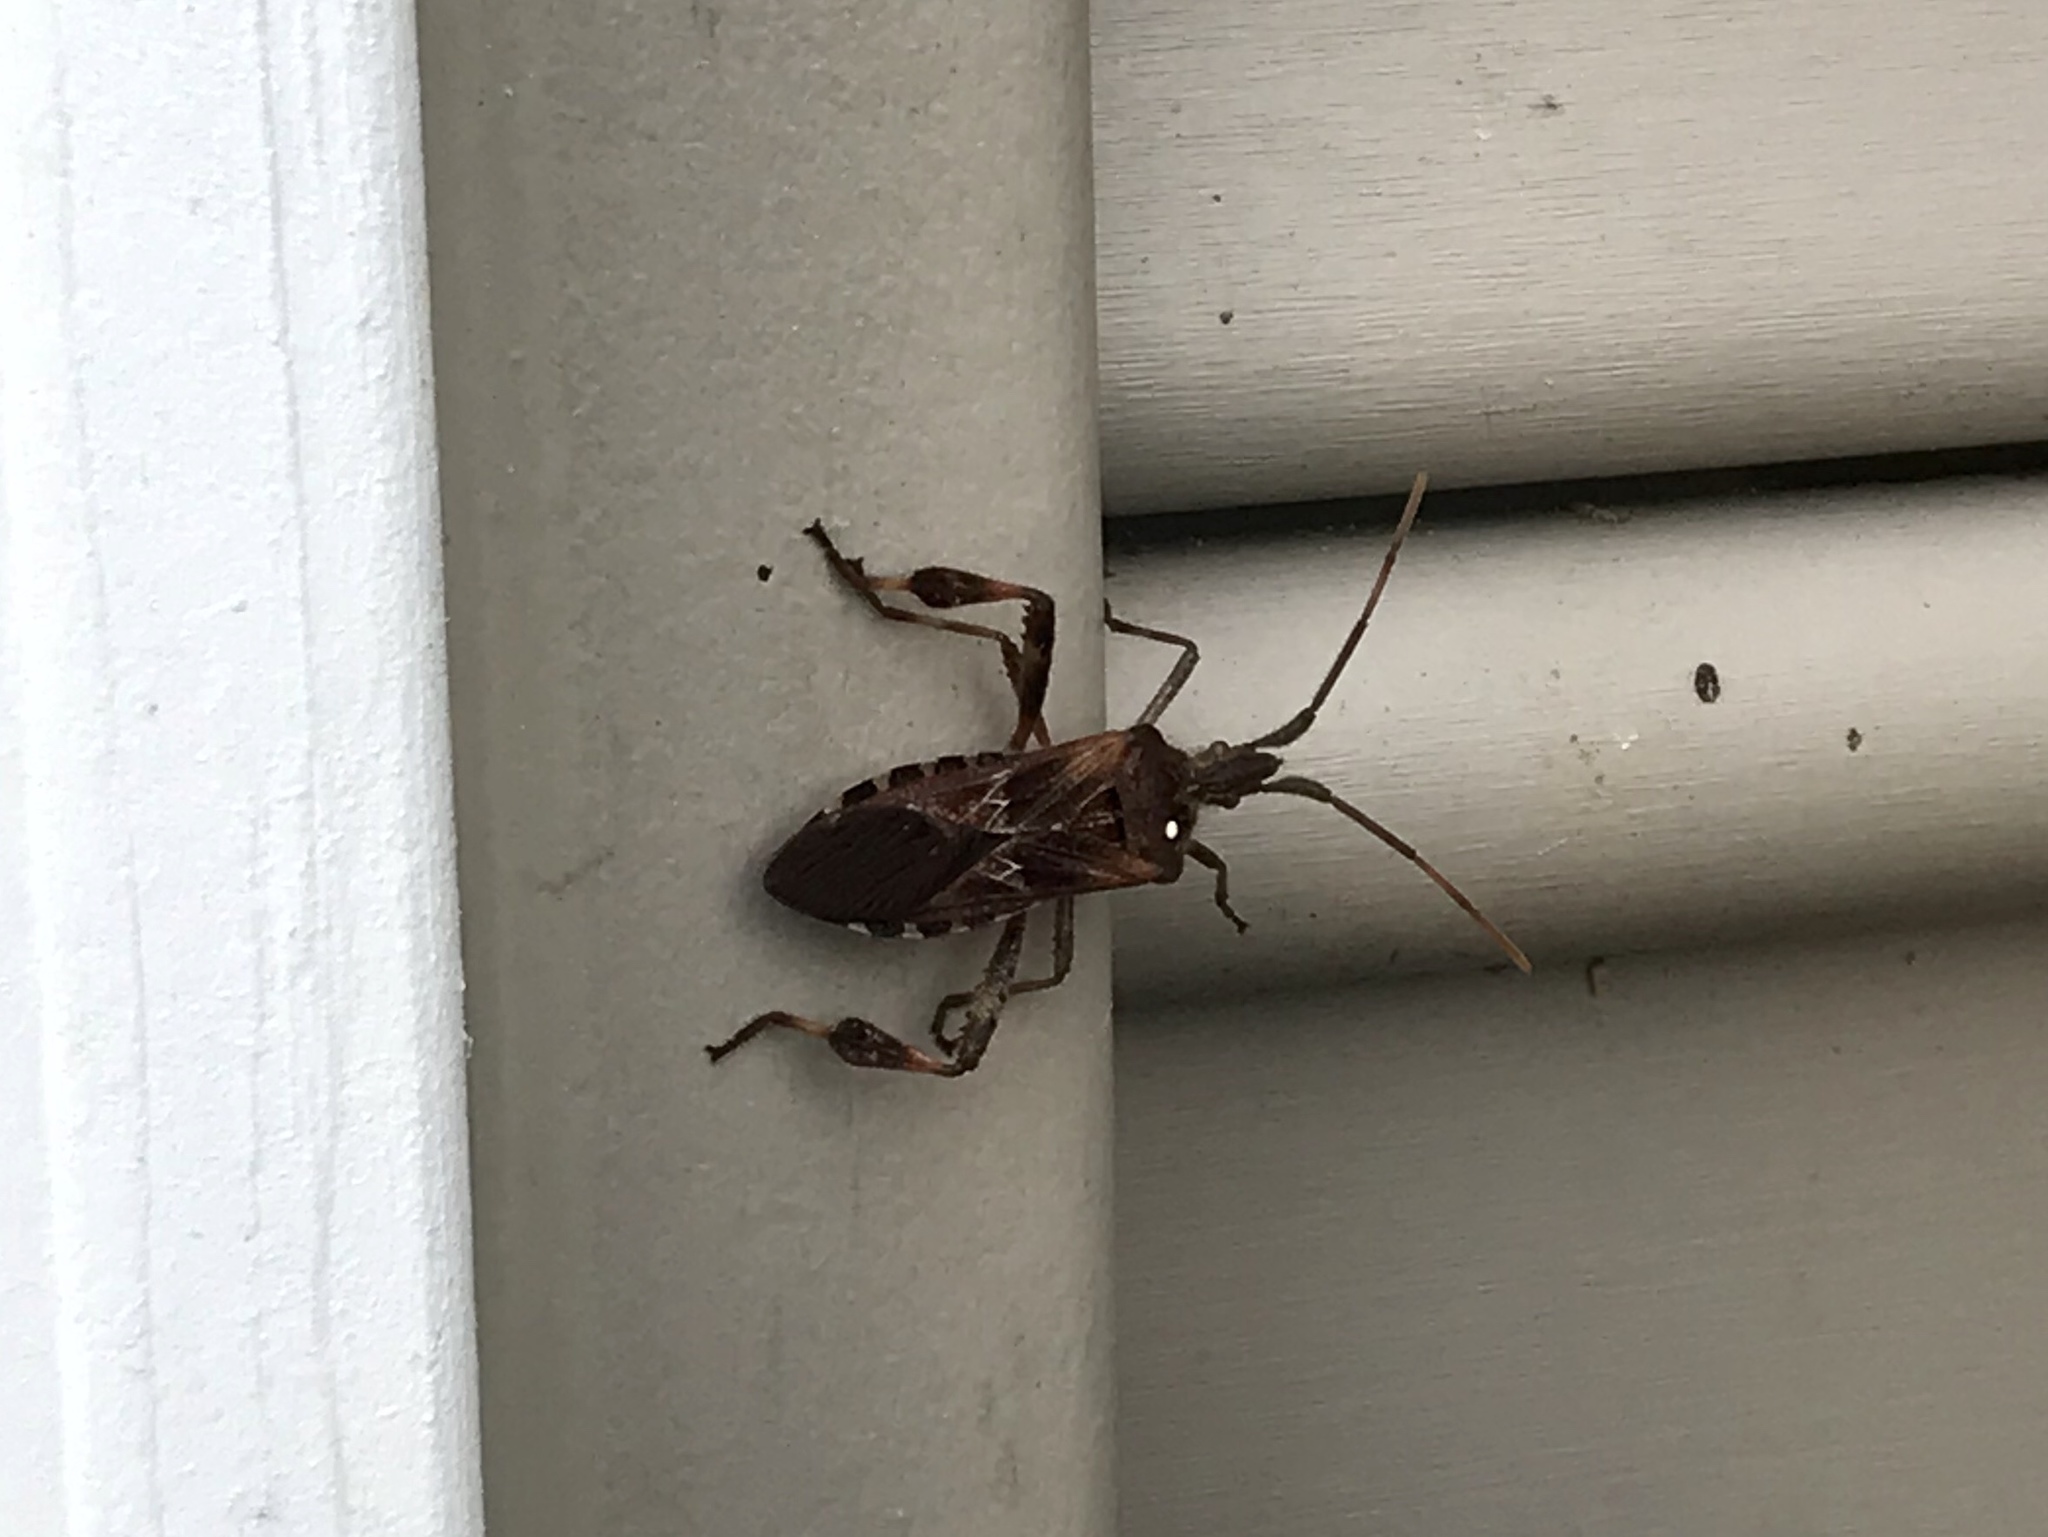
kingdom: Animalia
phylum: Arthropoda
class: Insecta
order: Hemiptera
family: Coreidae
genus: Leptoglossus
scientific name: Leptoglossus occidentalis
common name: Western conifer-seed bug
